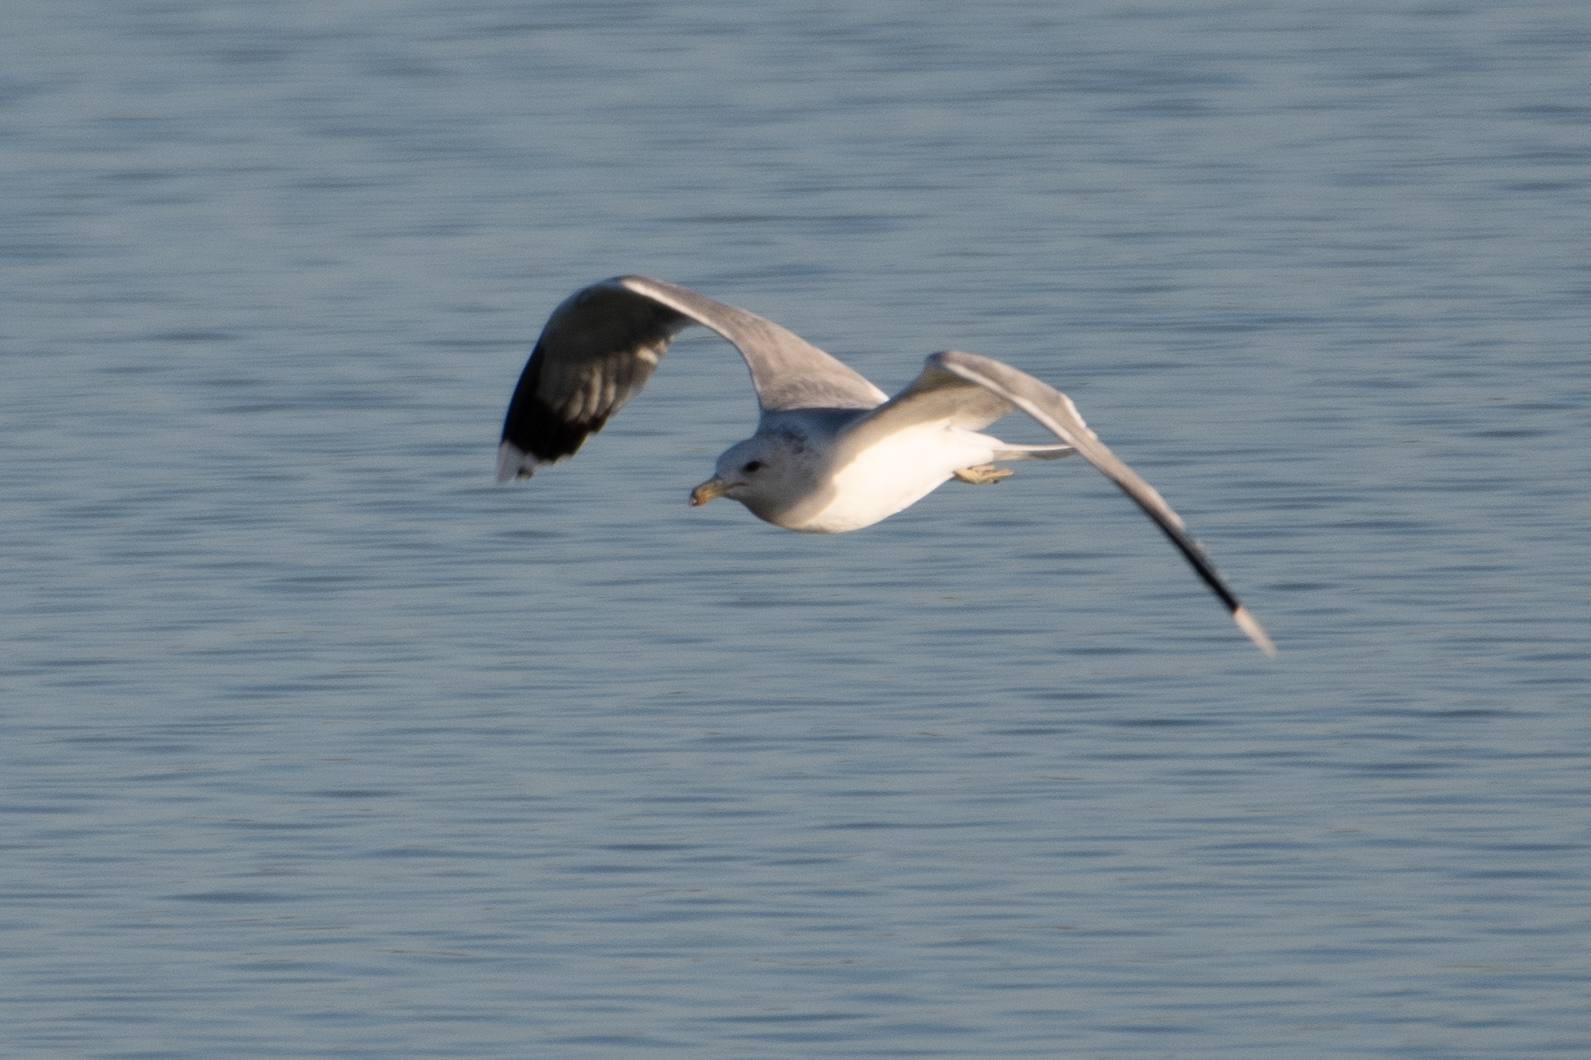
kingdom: Animalia
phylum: Chordata
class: Aves
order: Charadriiformes
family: Laridae
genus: Larus
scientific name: Larus californicus
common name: California gull
